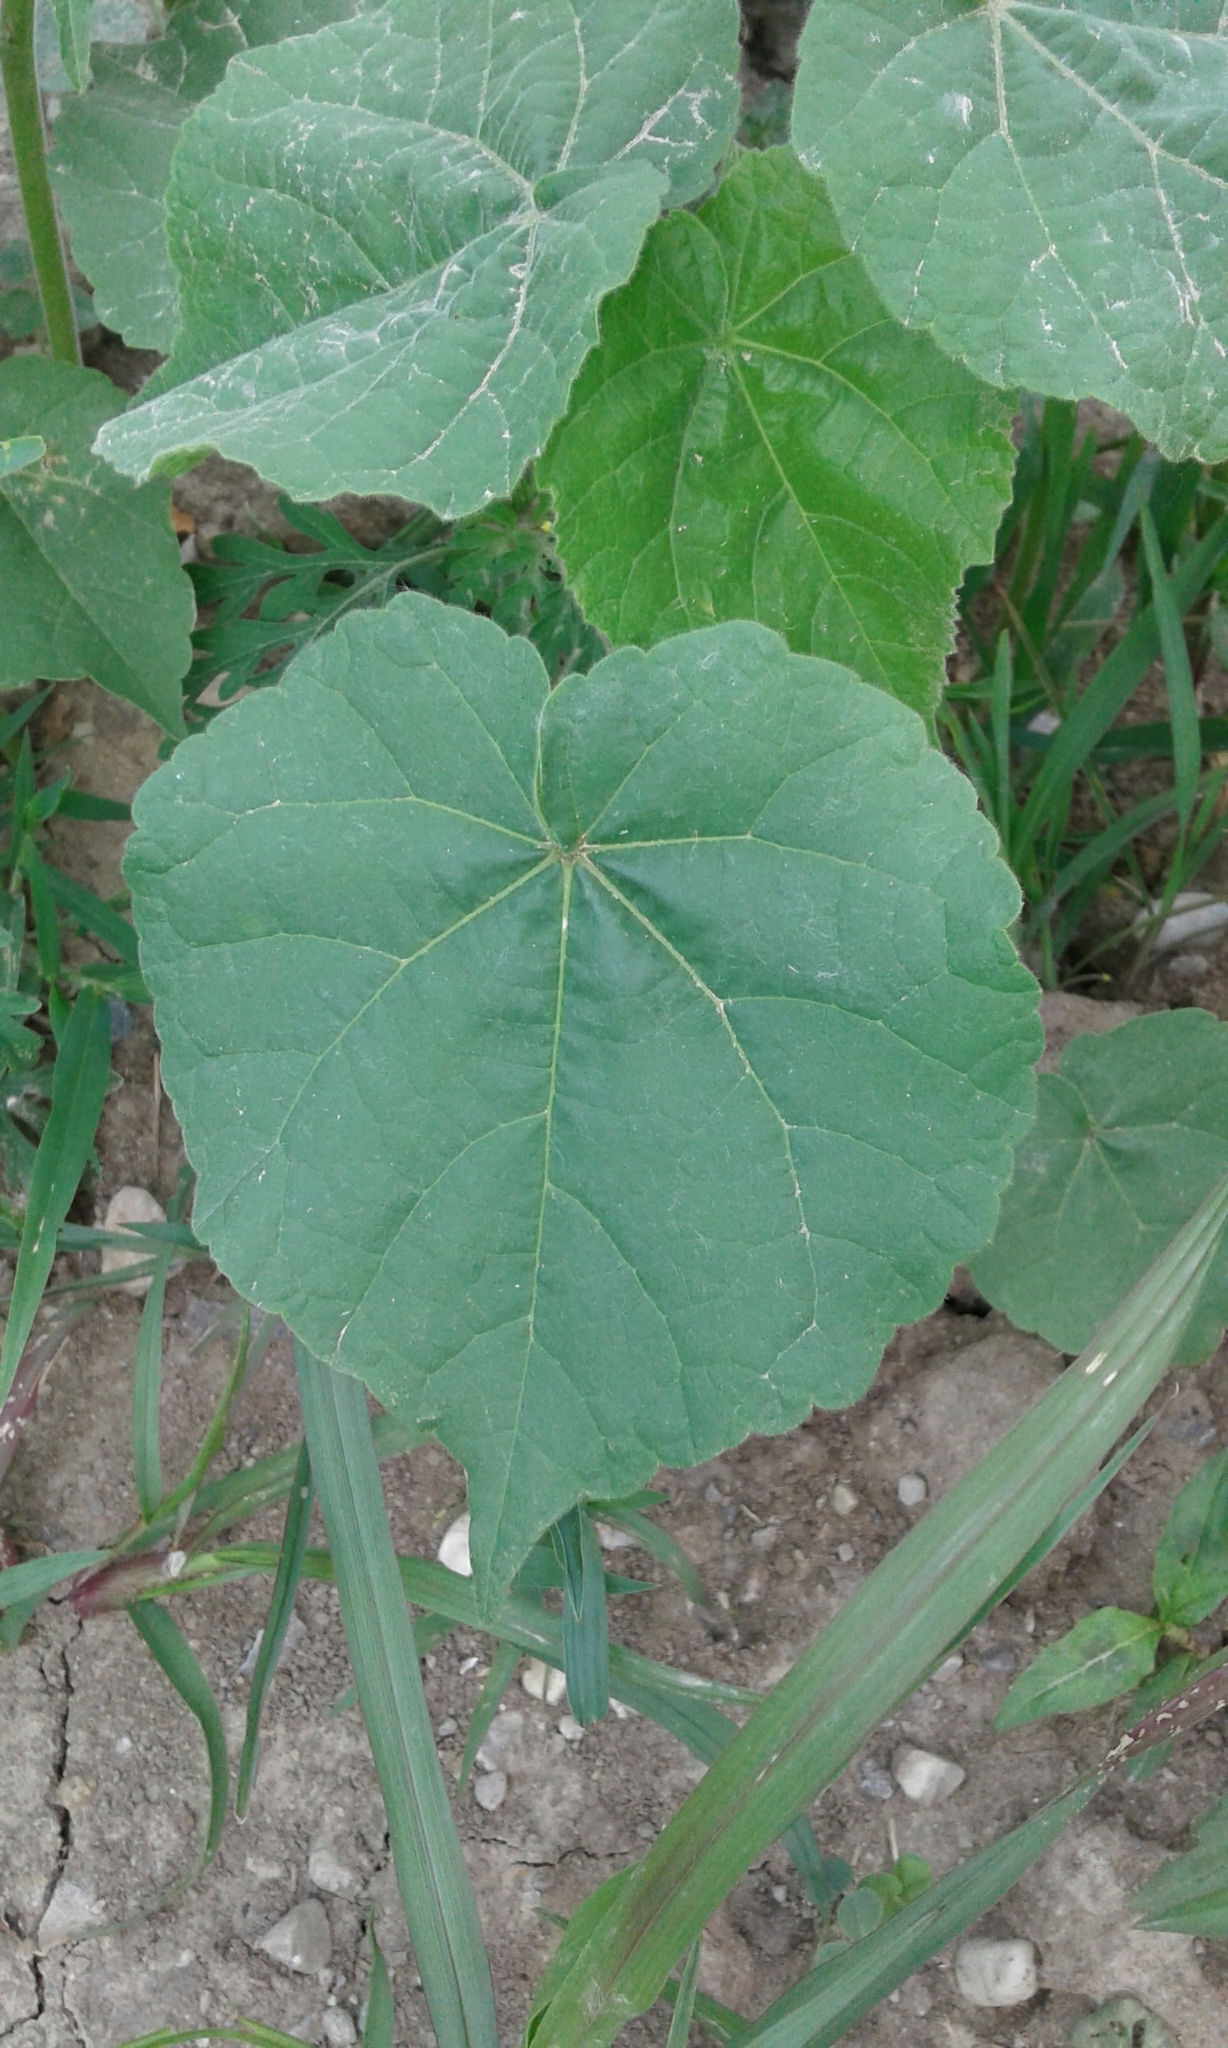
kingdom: Plantae
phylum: Tracheophyta
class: Magnoliopsida
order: Malvales
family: Malvaceae
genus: Abutilon
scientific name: Abutilon theophrasti
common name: Velvetleaf
